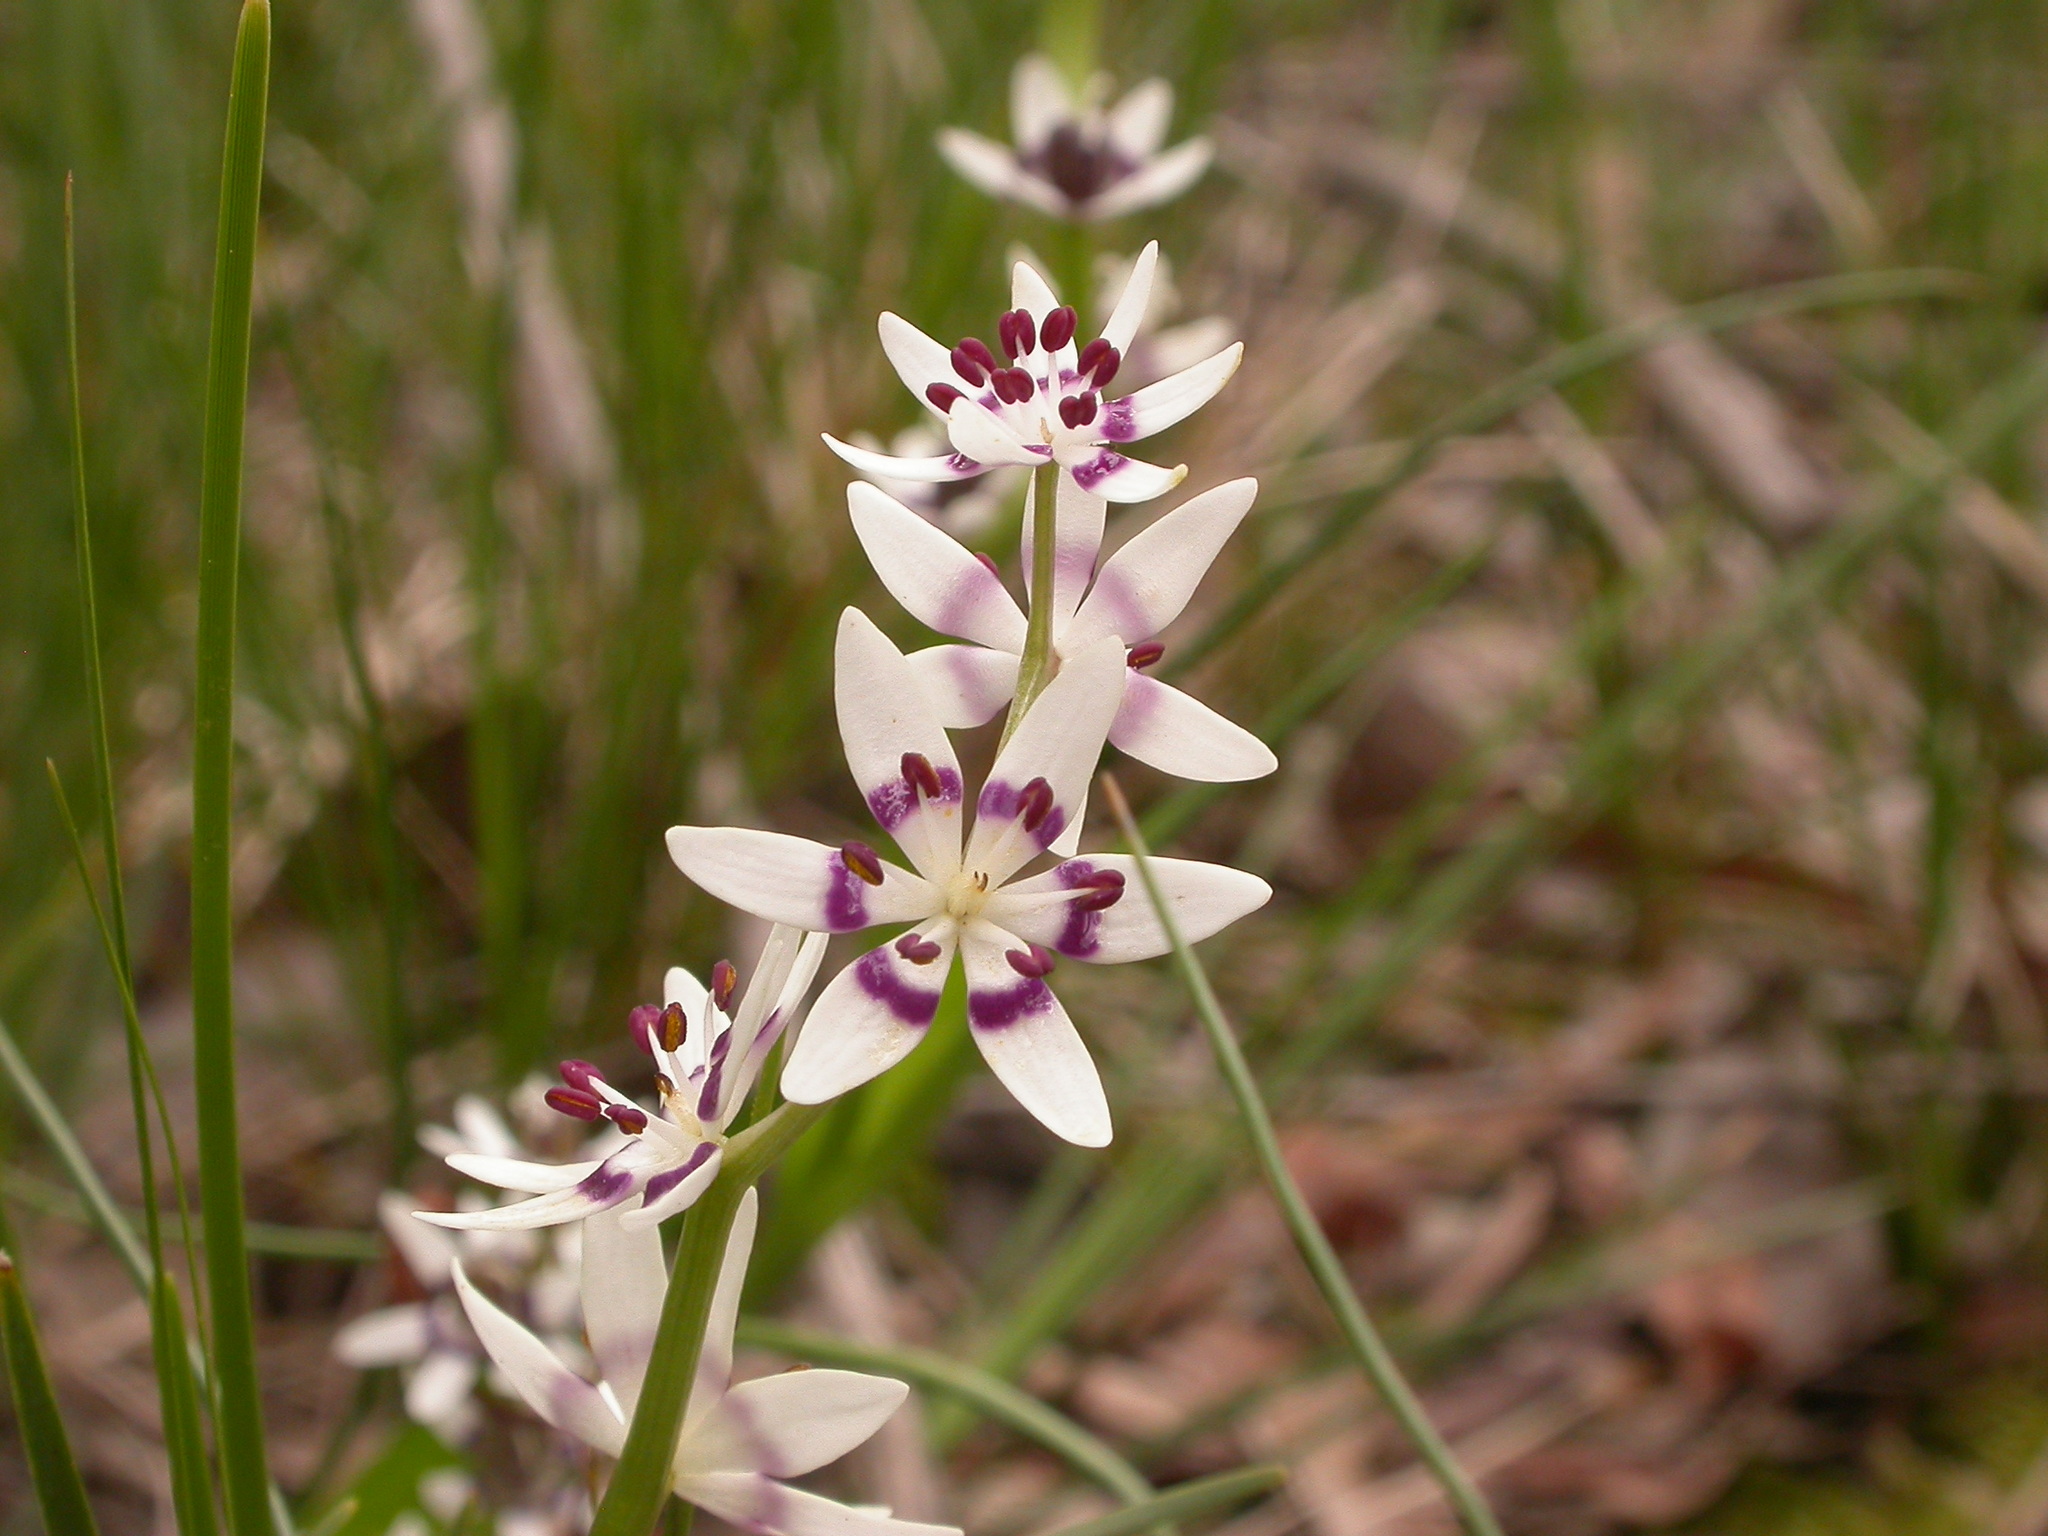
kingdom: Plantae
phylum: Tracheophyta
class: Liliopsida
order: Liliales
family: Colchicaceae
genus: Wurmbea
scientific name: Wurmbea dioica
